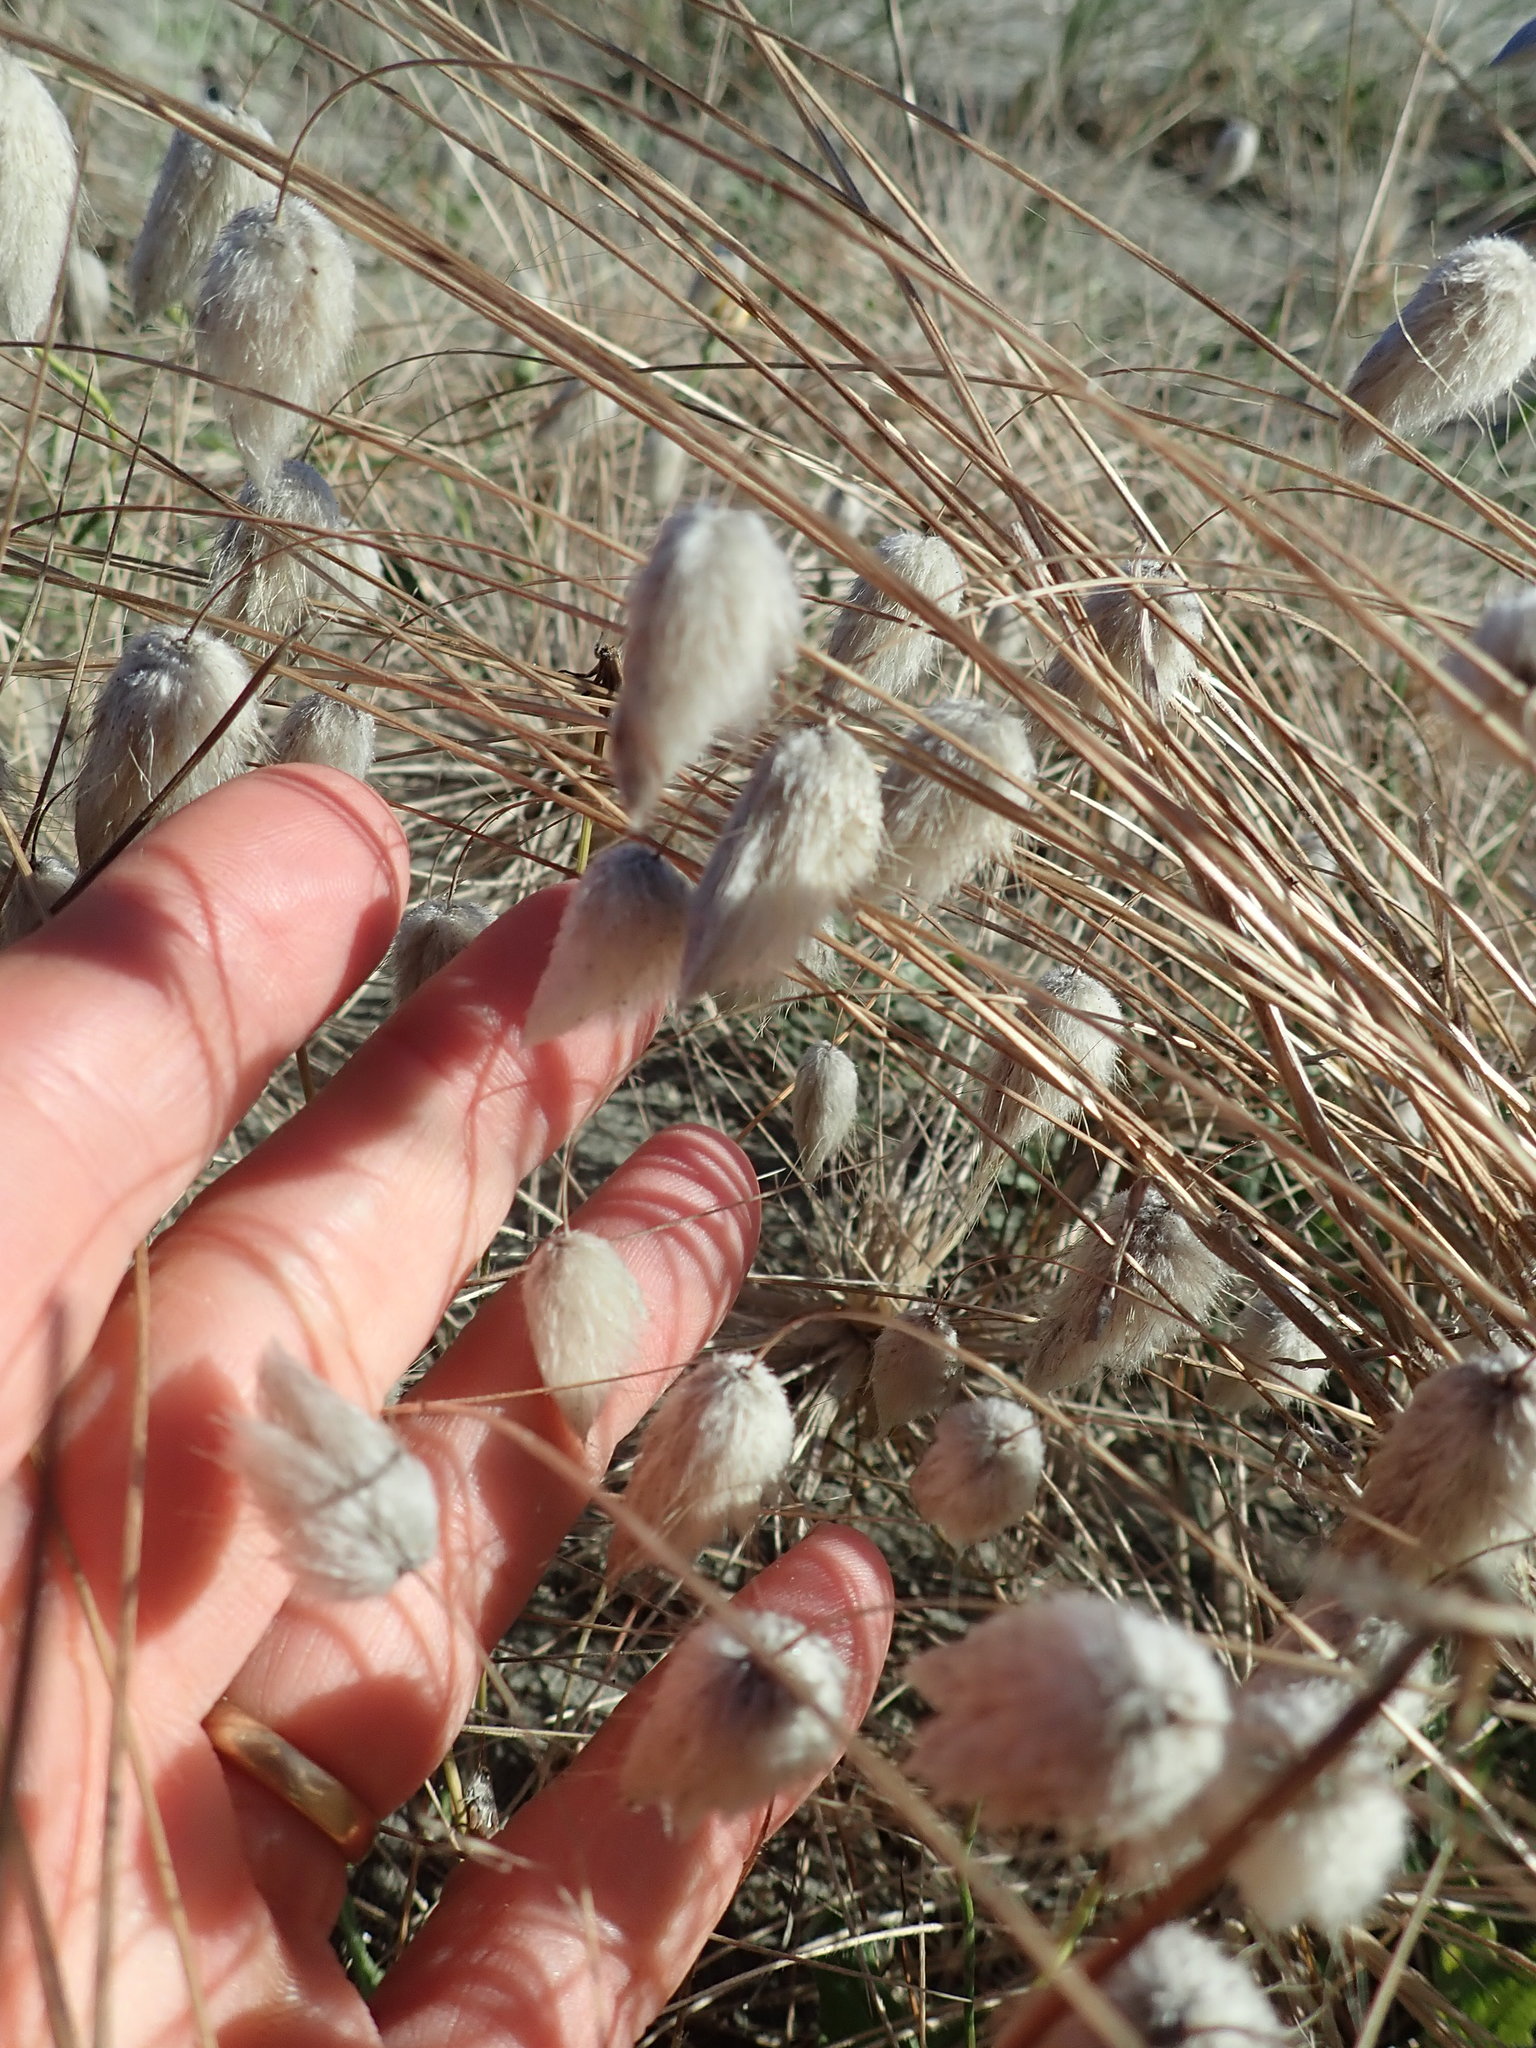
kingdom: Plantae
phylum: Tracheophyta
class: Liliopsida
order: Poales
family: Poaceae
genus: Lagurus
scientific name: Lagurus ovatus
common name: Hare's-tail
